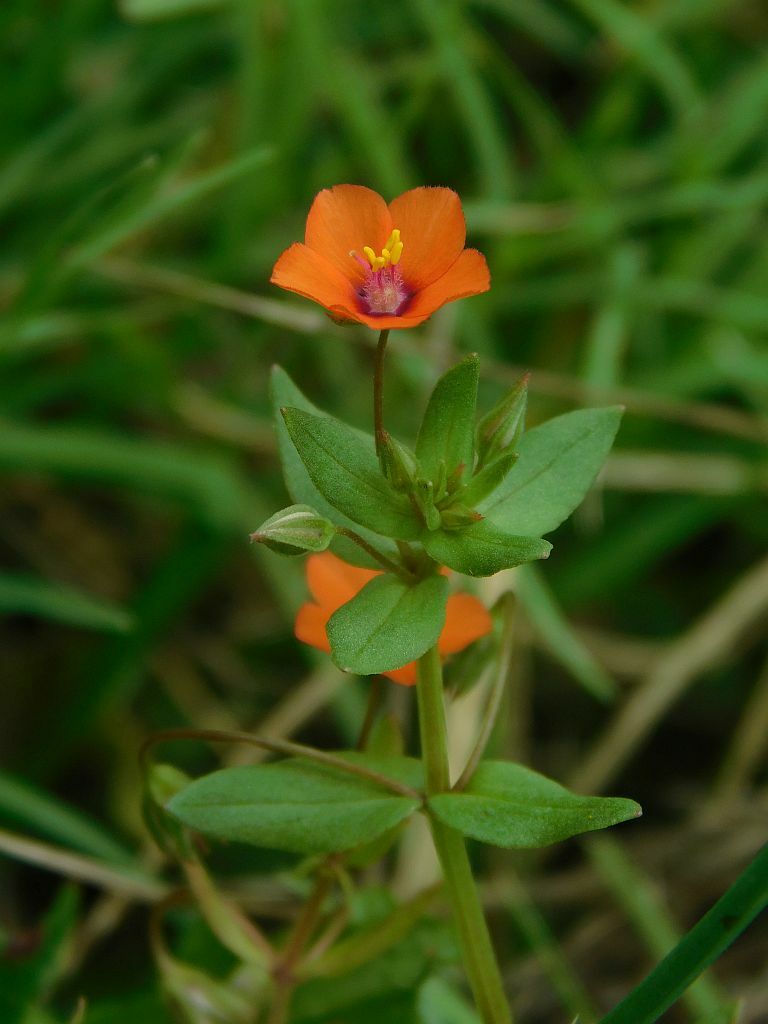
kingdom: Plantae
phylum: Tracheophyta
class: Magnoliopsida
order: Ericales
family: Primulaceae
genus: Lysimachia
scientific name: Lysimachia arvensis
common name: Scarlet pimpernel
